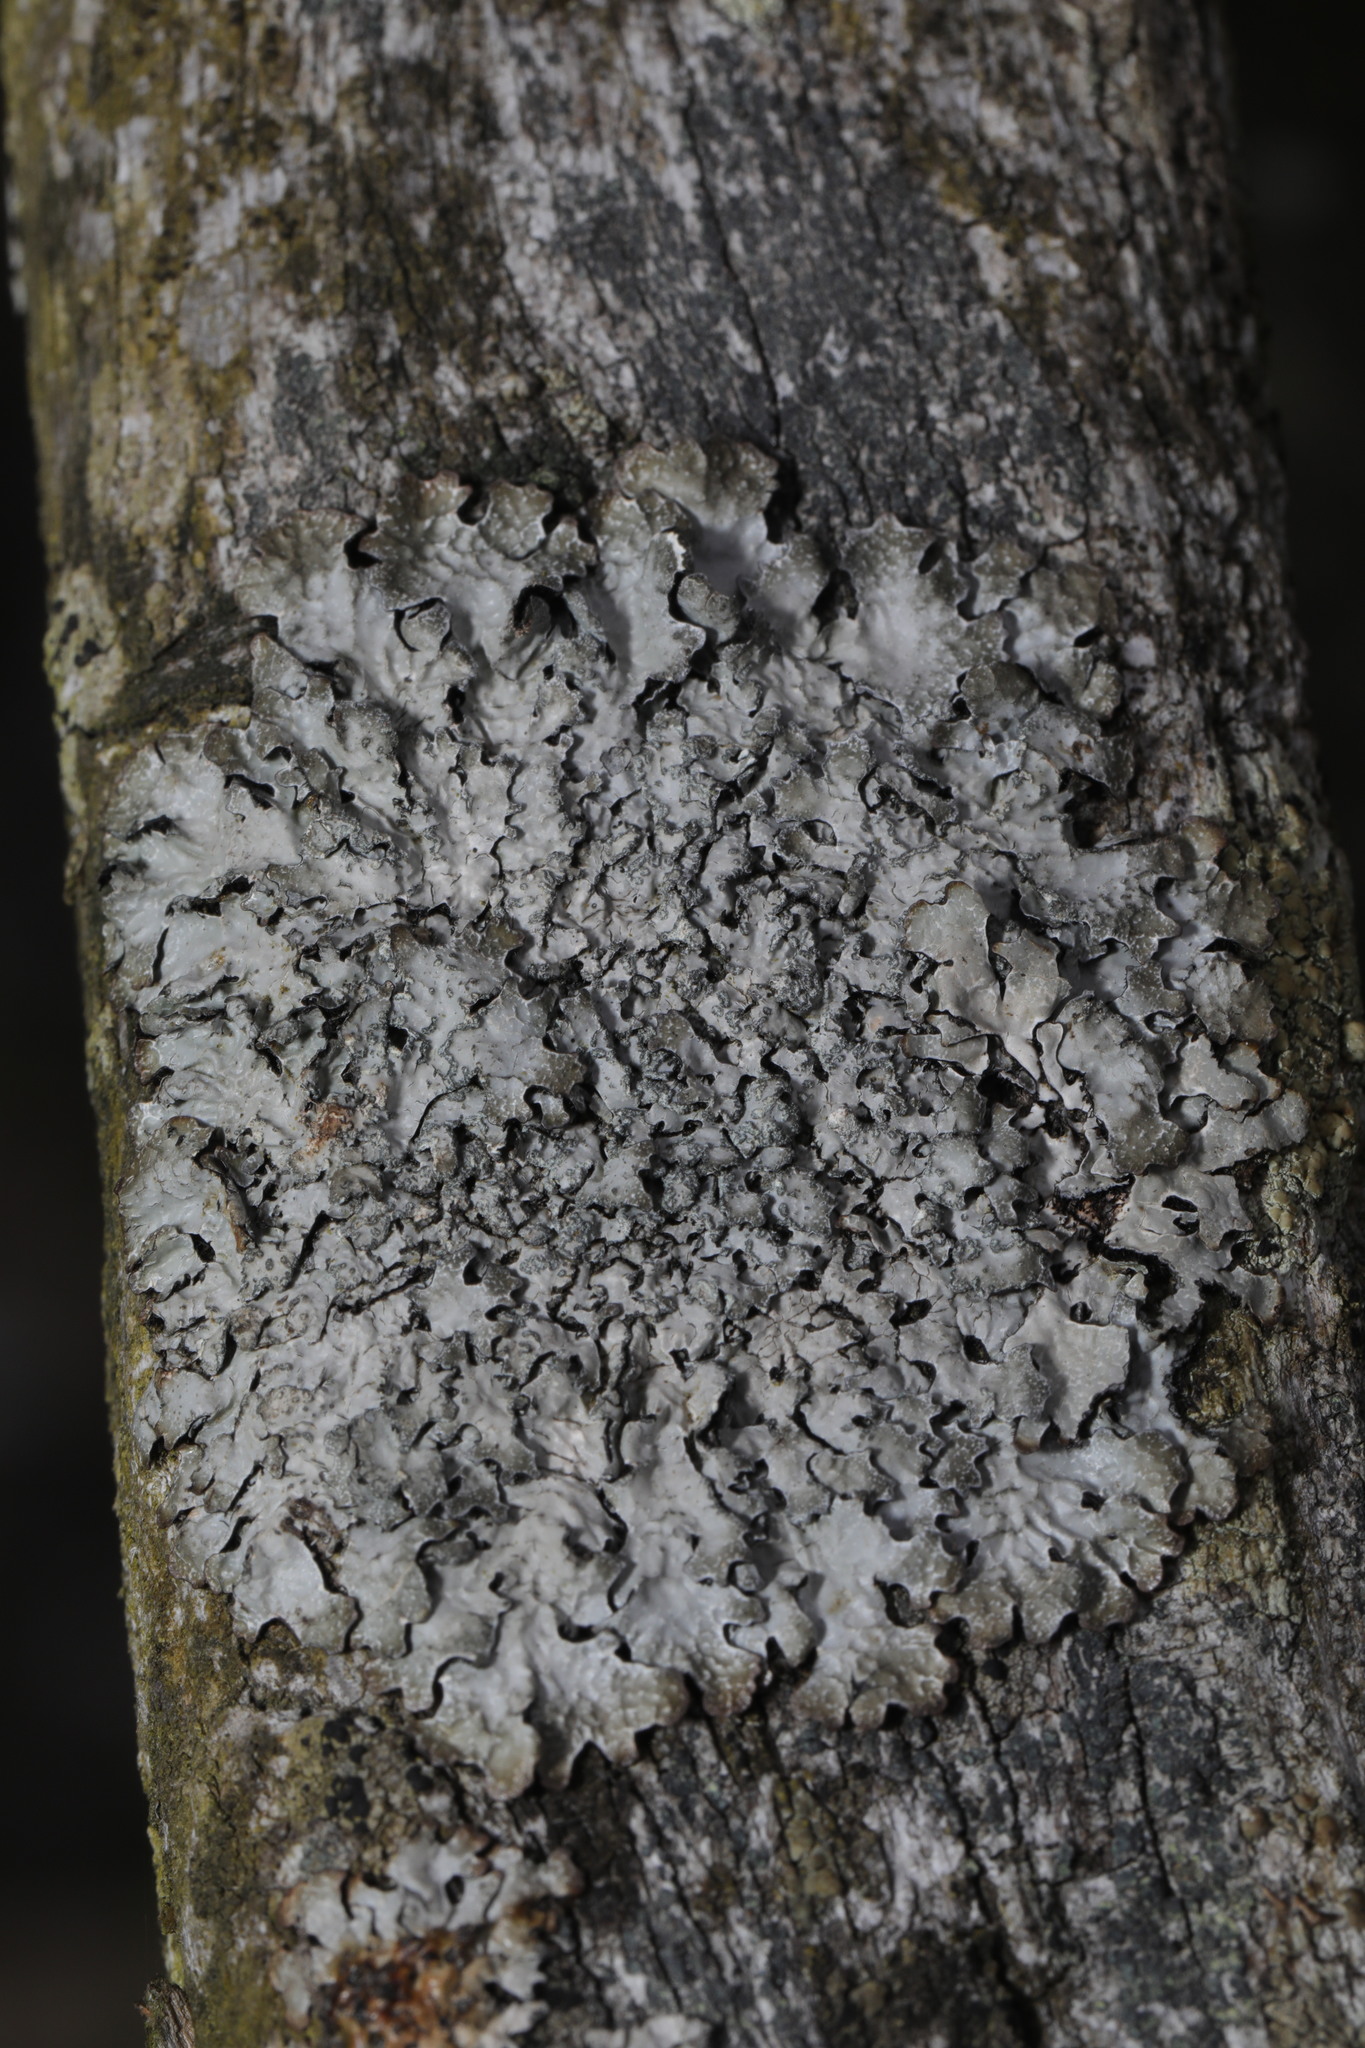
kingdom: Fungi
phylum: Ascomycota
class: Lecanoromycetes
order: Lecanorales
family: Parmeliaceae
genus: Parmelia
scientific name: Parmelia sulcata
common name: Netted shield lichen
